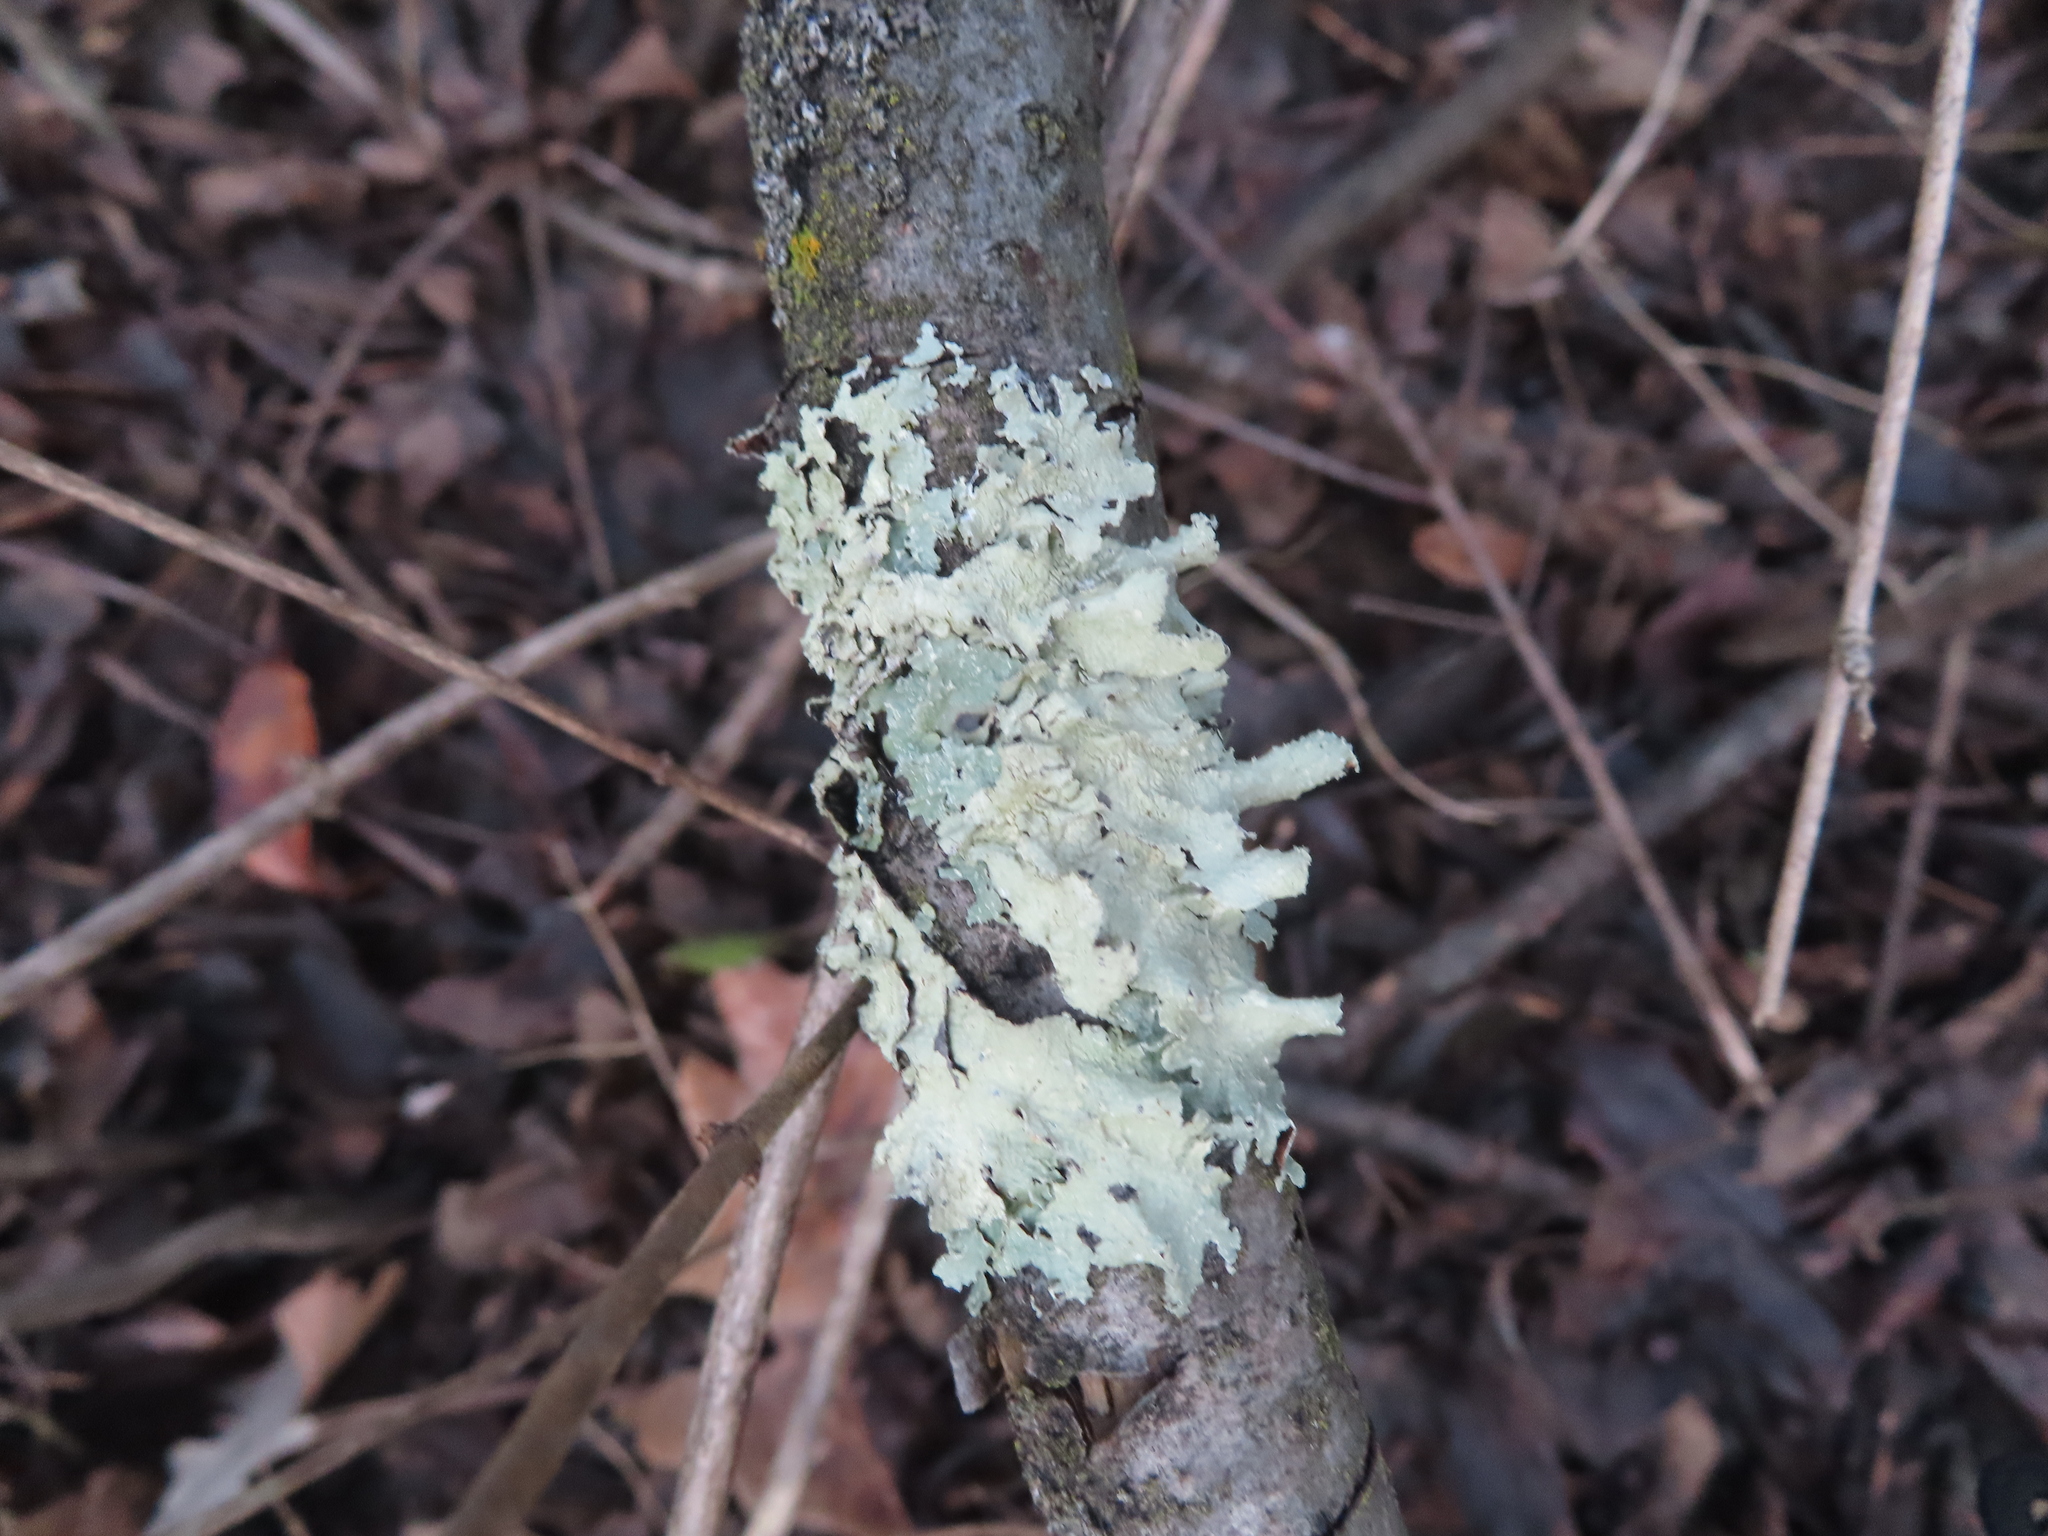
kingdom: Fungi
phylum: Ascomycota
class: Lecanoromycetes
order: Lecanorales
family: Parmeliaceae
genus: Flavoparmelia
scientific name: Flavoparmelia caperata
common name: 40-mile per hour lichen
